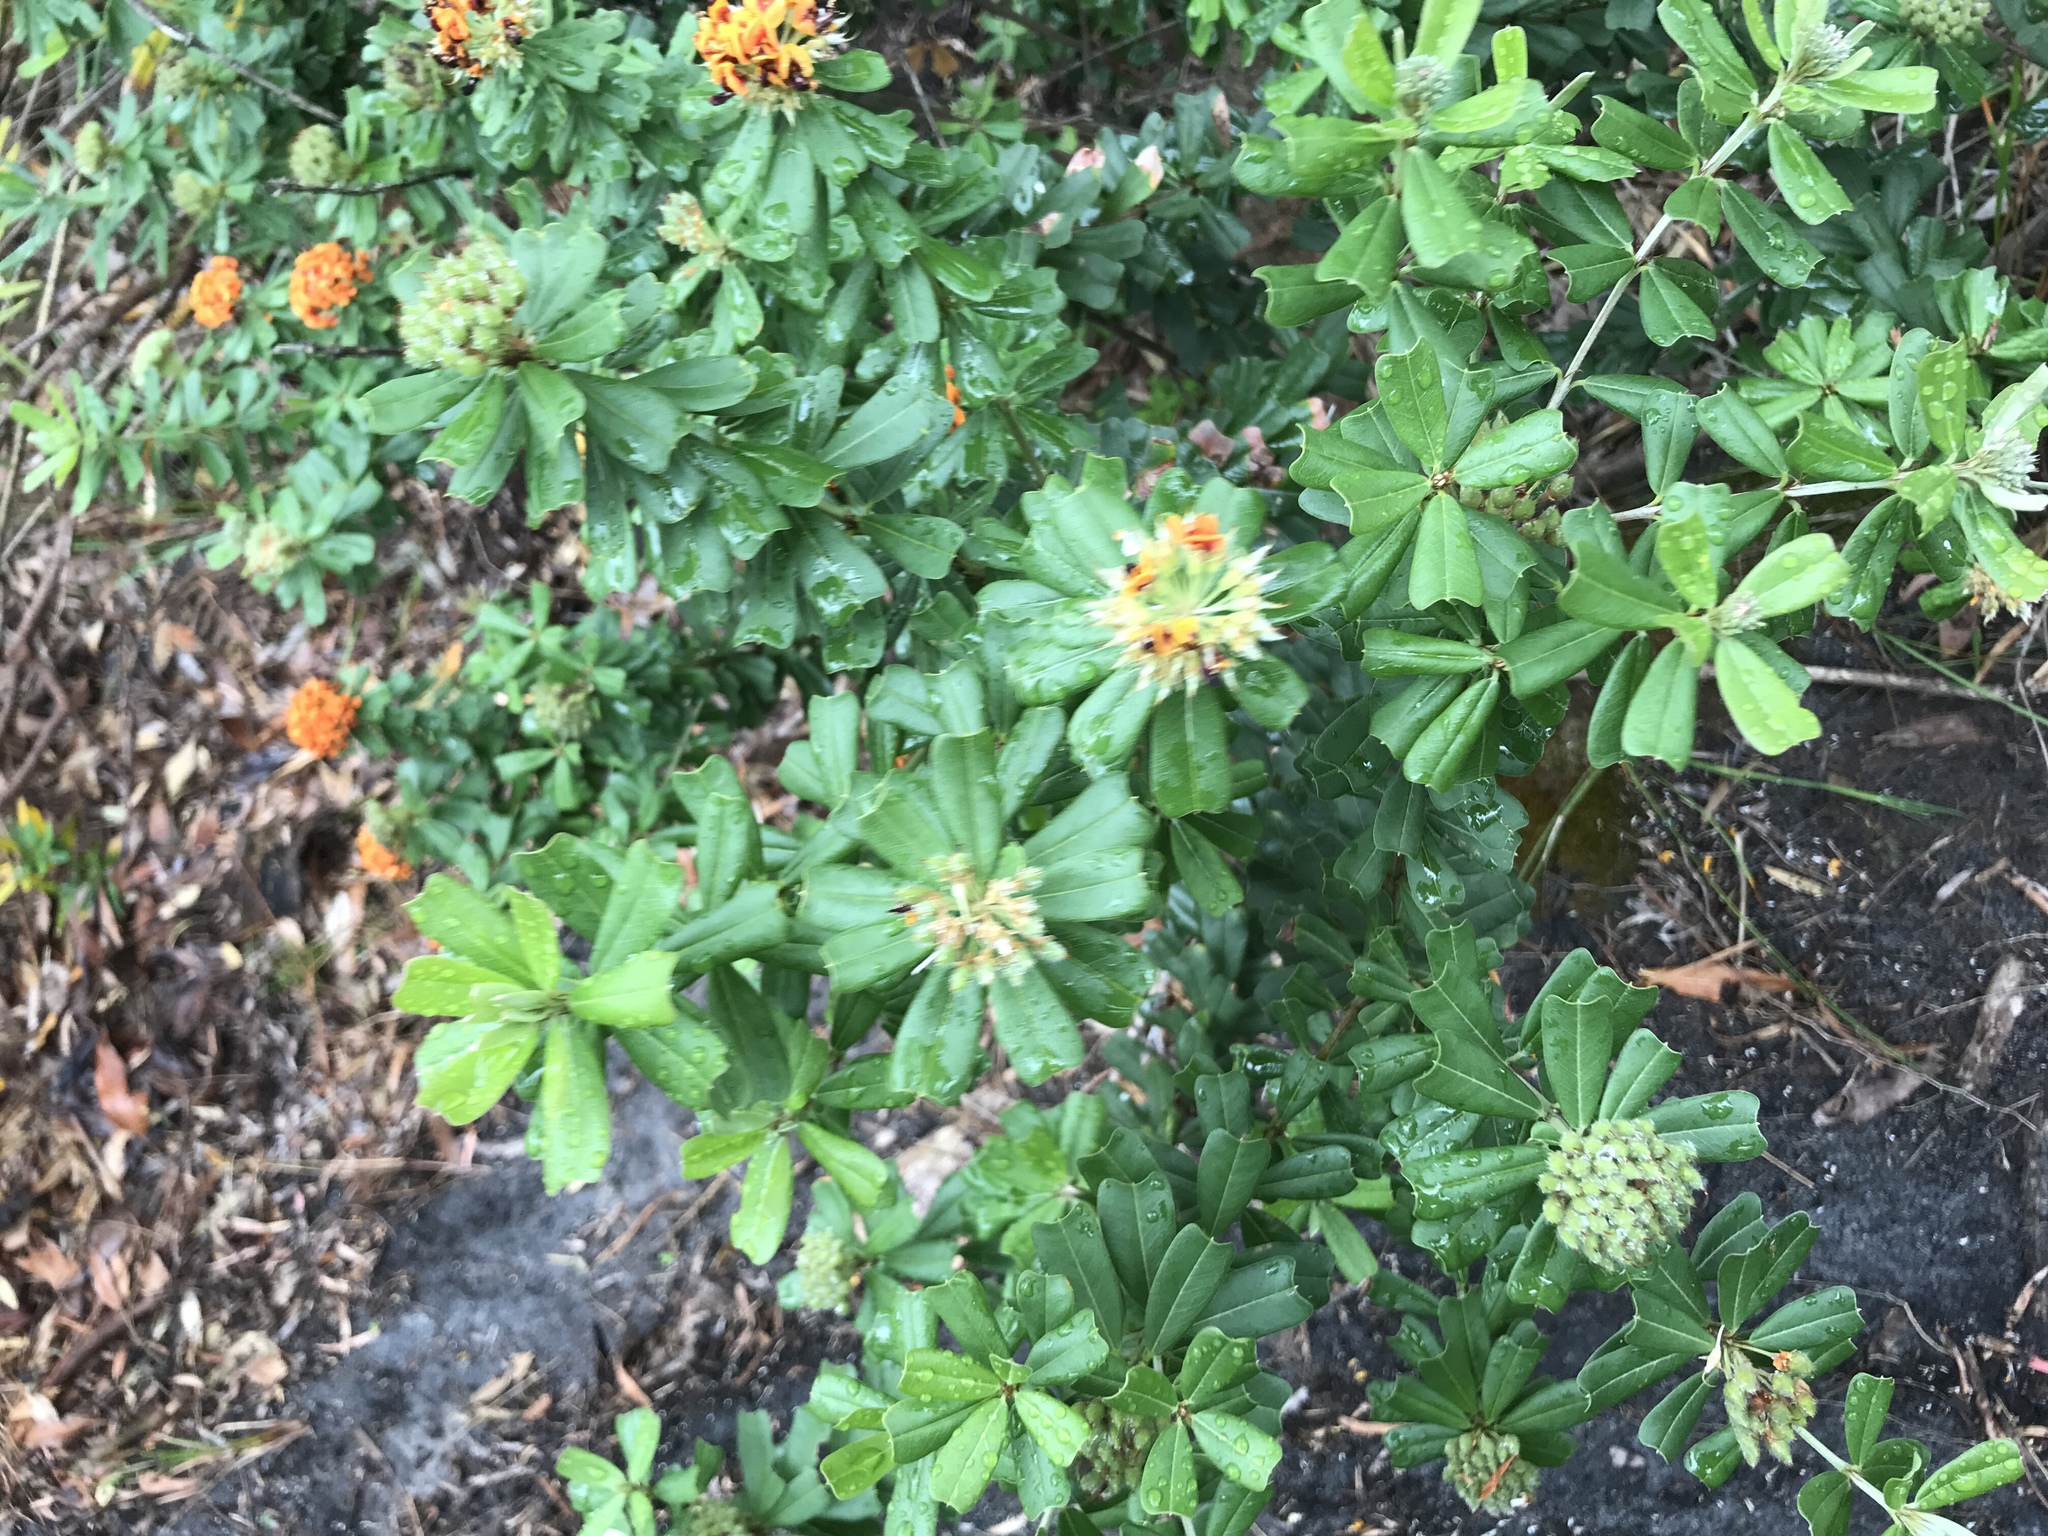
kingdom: Plantae
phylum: Tracheophyta
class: Magnoliopsida
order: Fabales
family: Fabaceae
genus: Gastrolobium
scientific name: Gastrolobium bilobum
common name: Heart-leaf poisonbush
